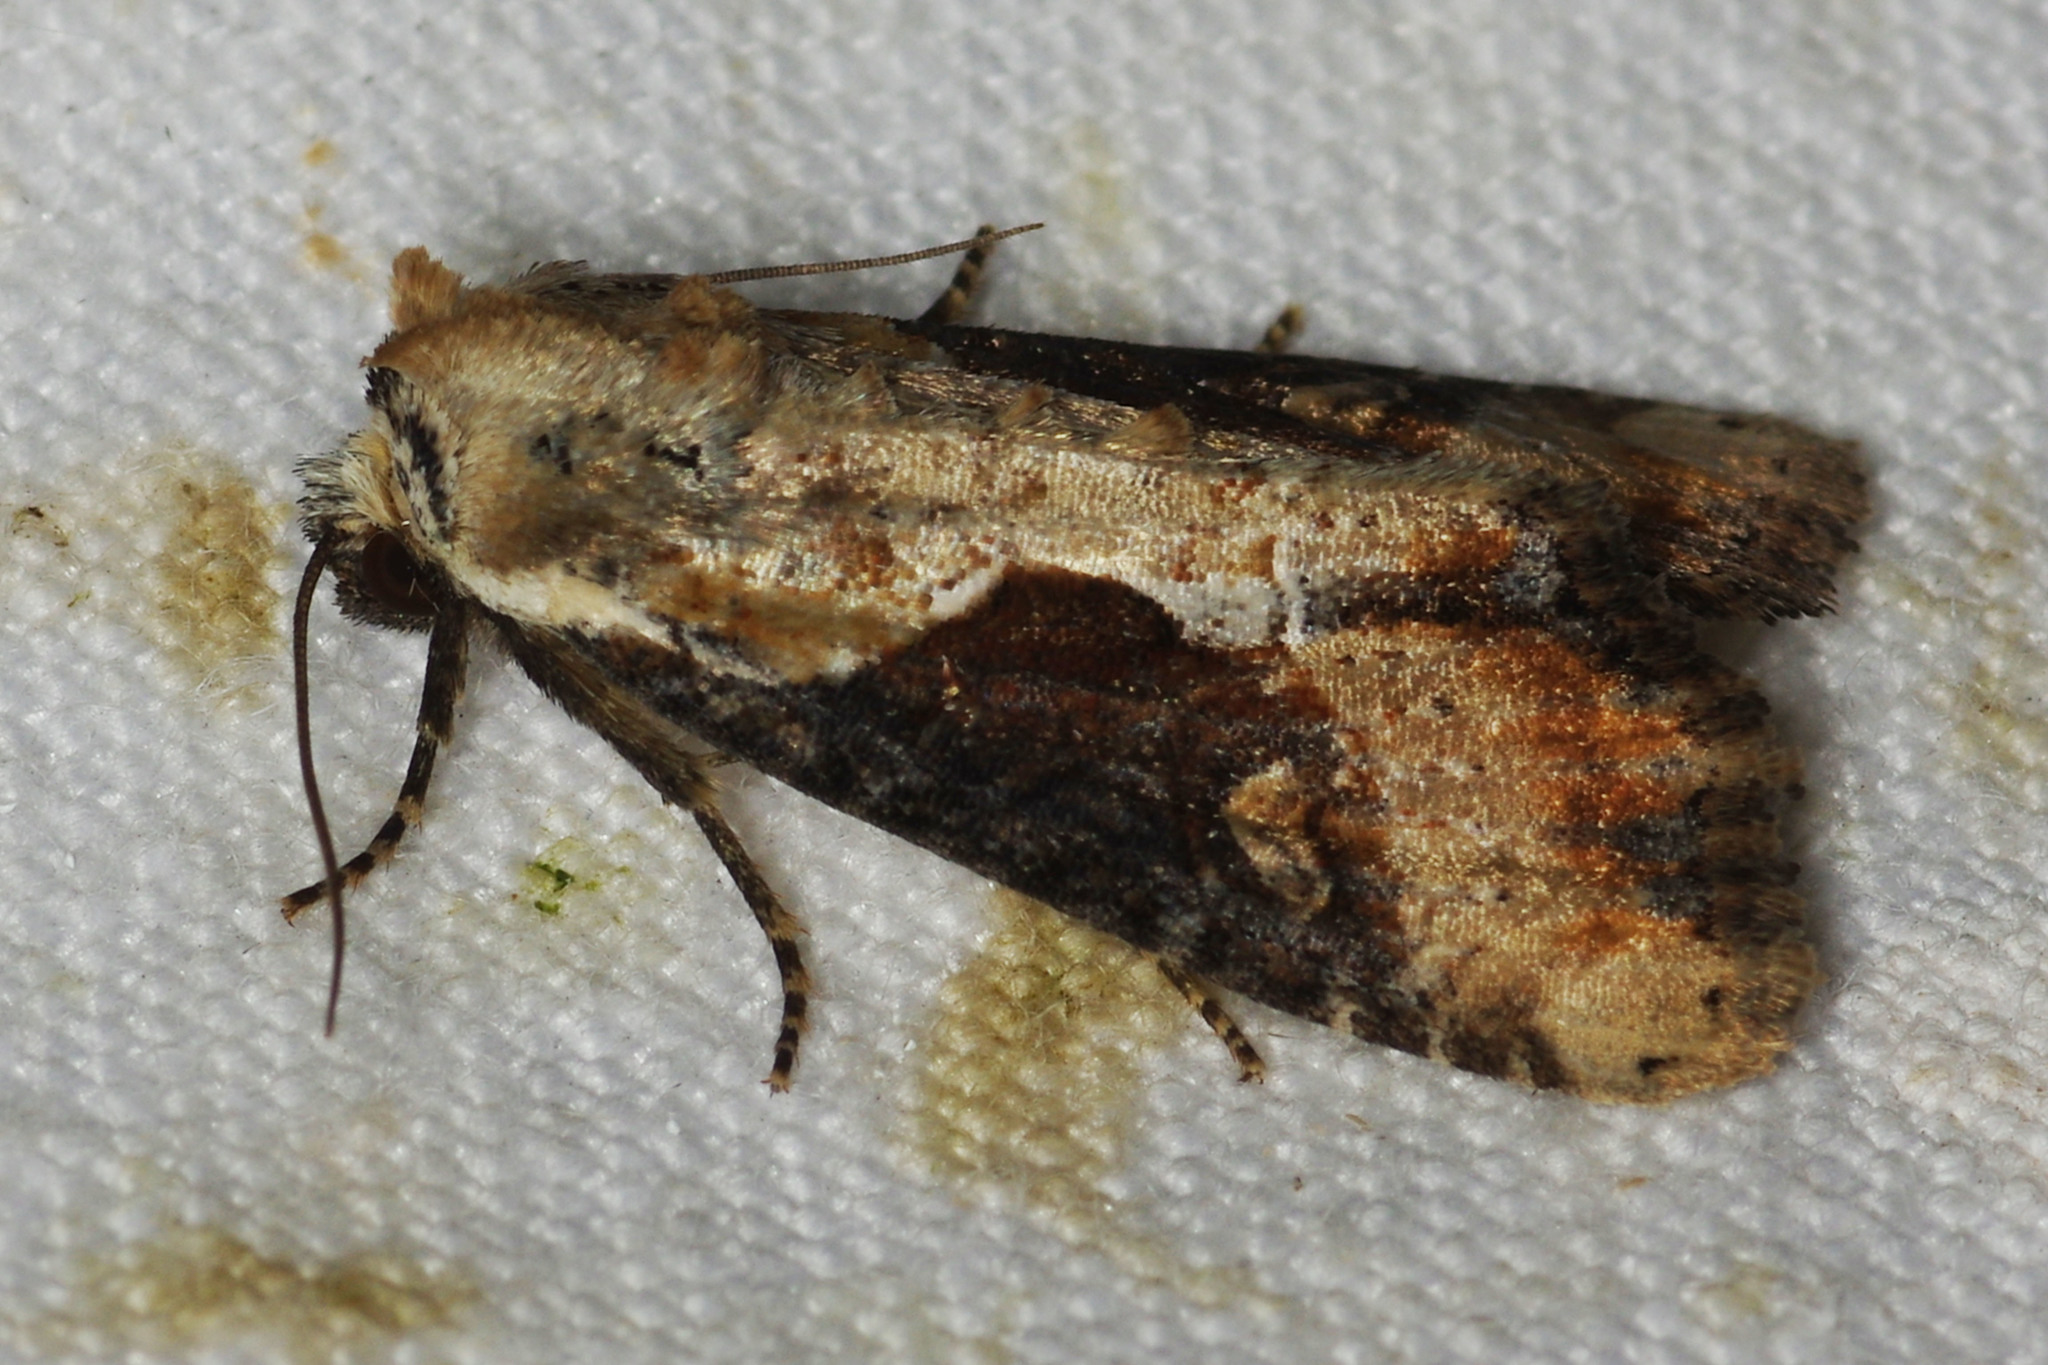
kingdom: Animalia
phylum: Arthropoda
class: Insecta
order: Lepidoptera
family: Noctuidae
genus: Lateroligia
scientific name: Lateroligia ophiogramma
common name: Double lobed
